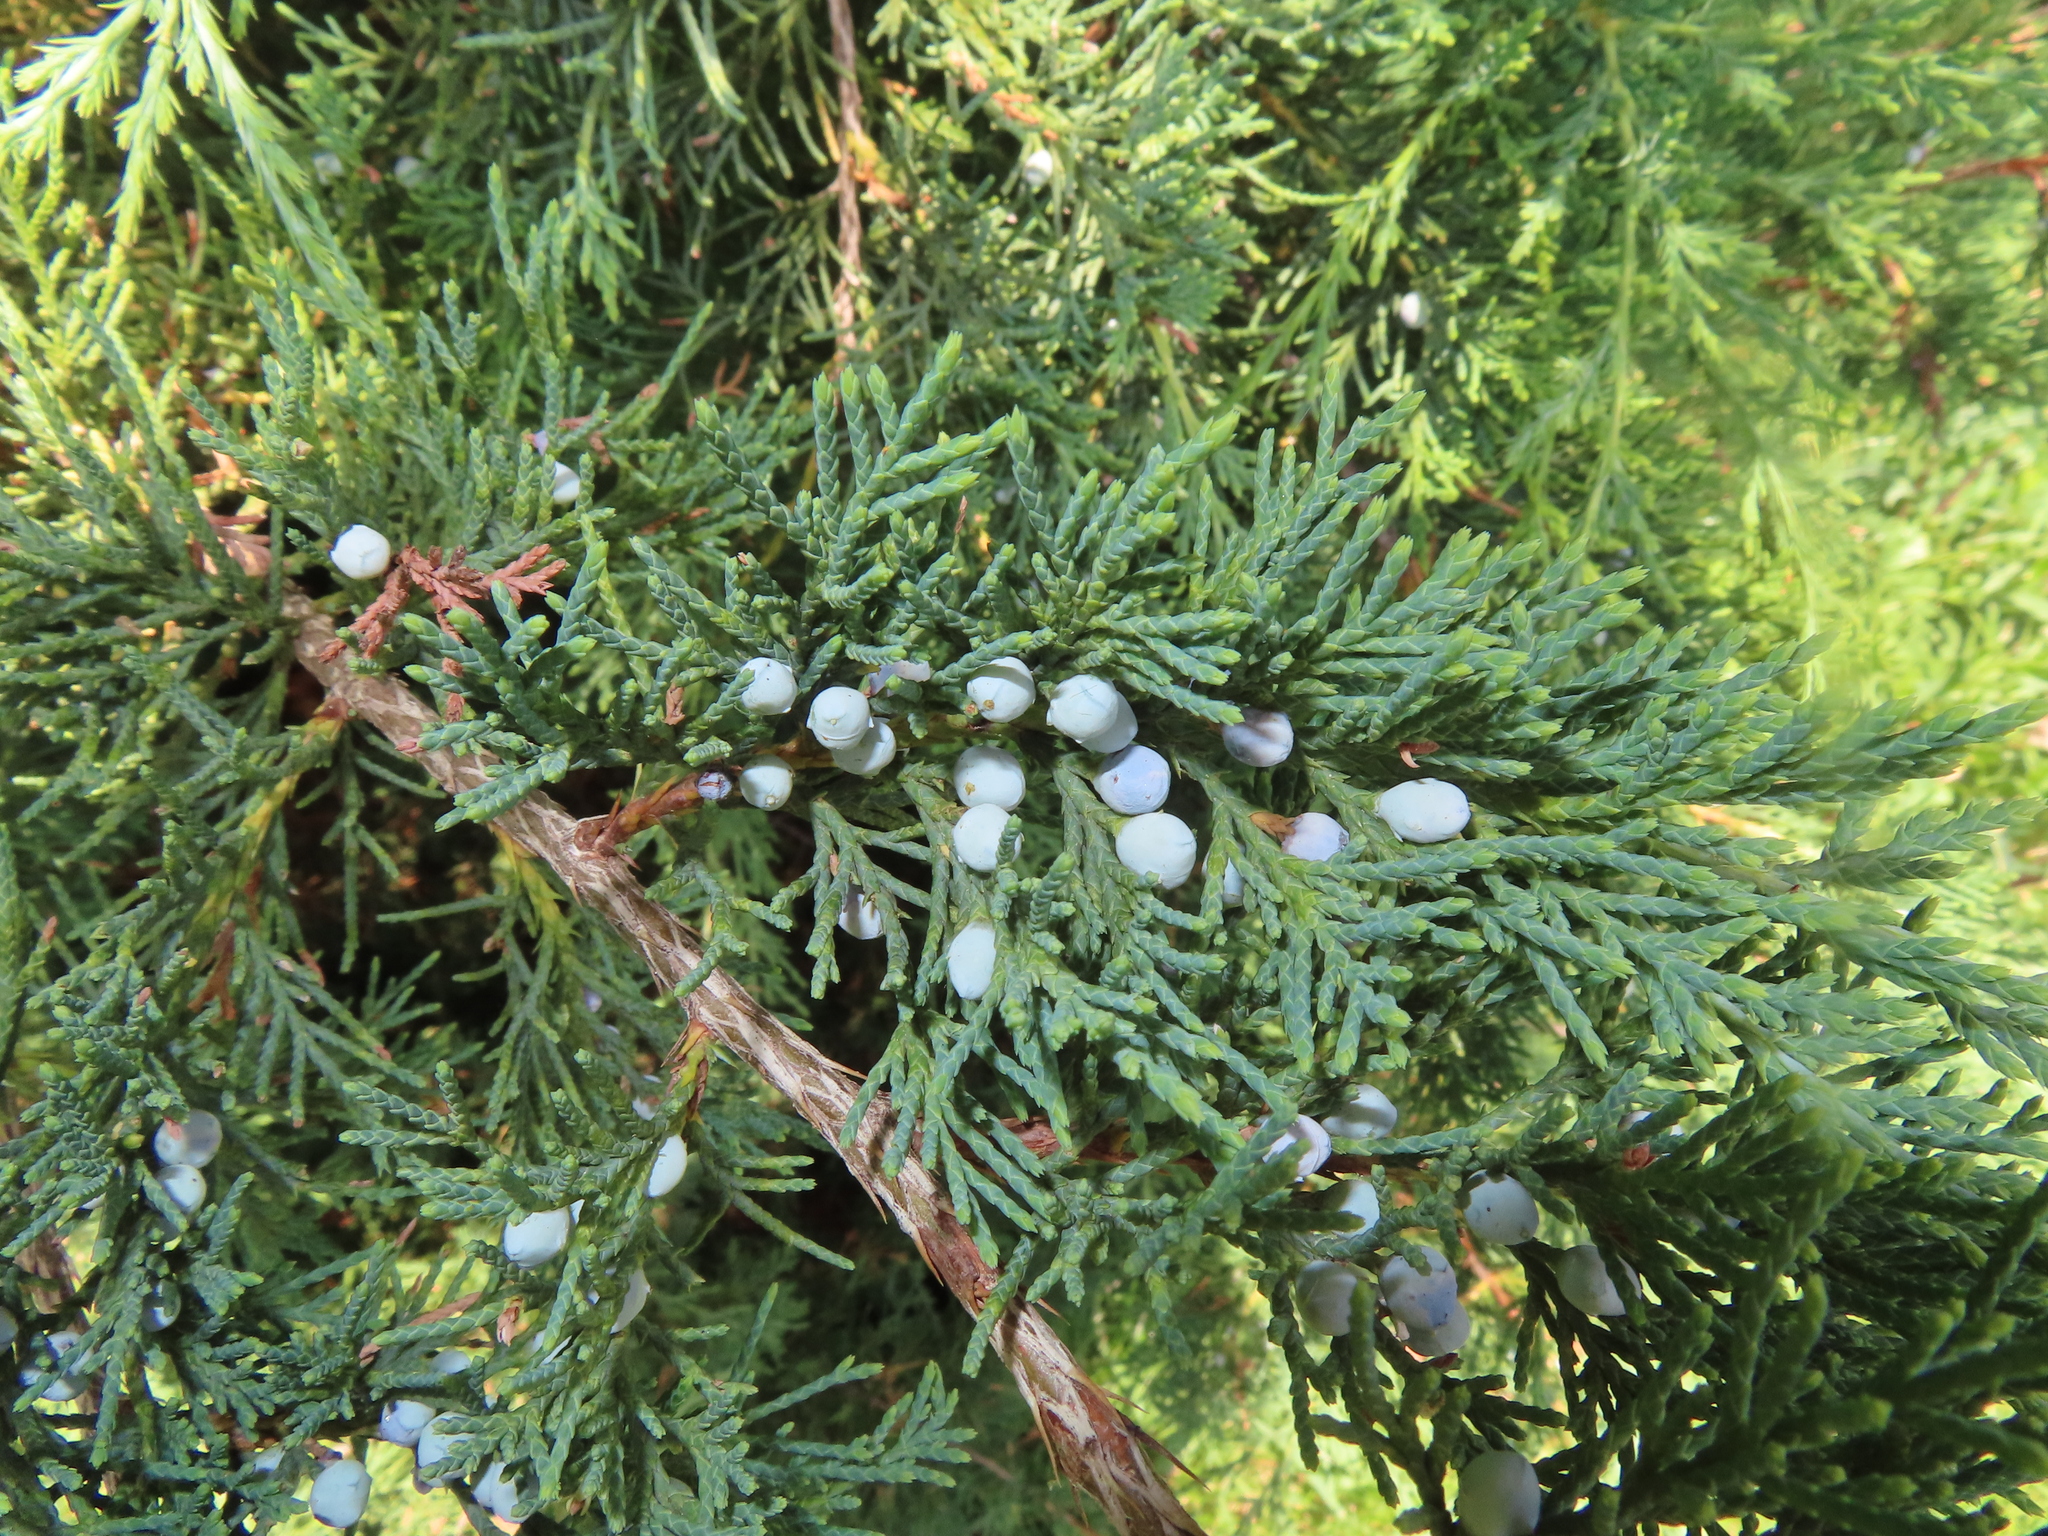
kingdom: Plantae
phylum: Tracheophyta
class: Pinopsida
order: Pinales
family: Cupressaceae
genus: Juniperus
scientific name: Juniperus virginiana
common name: Red juniper
